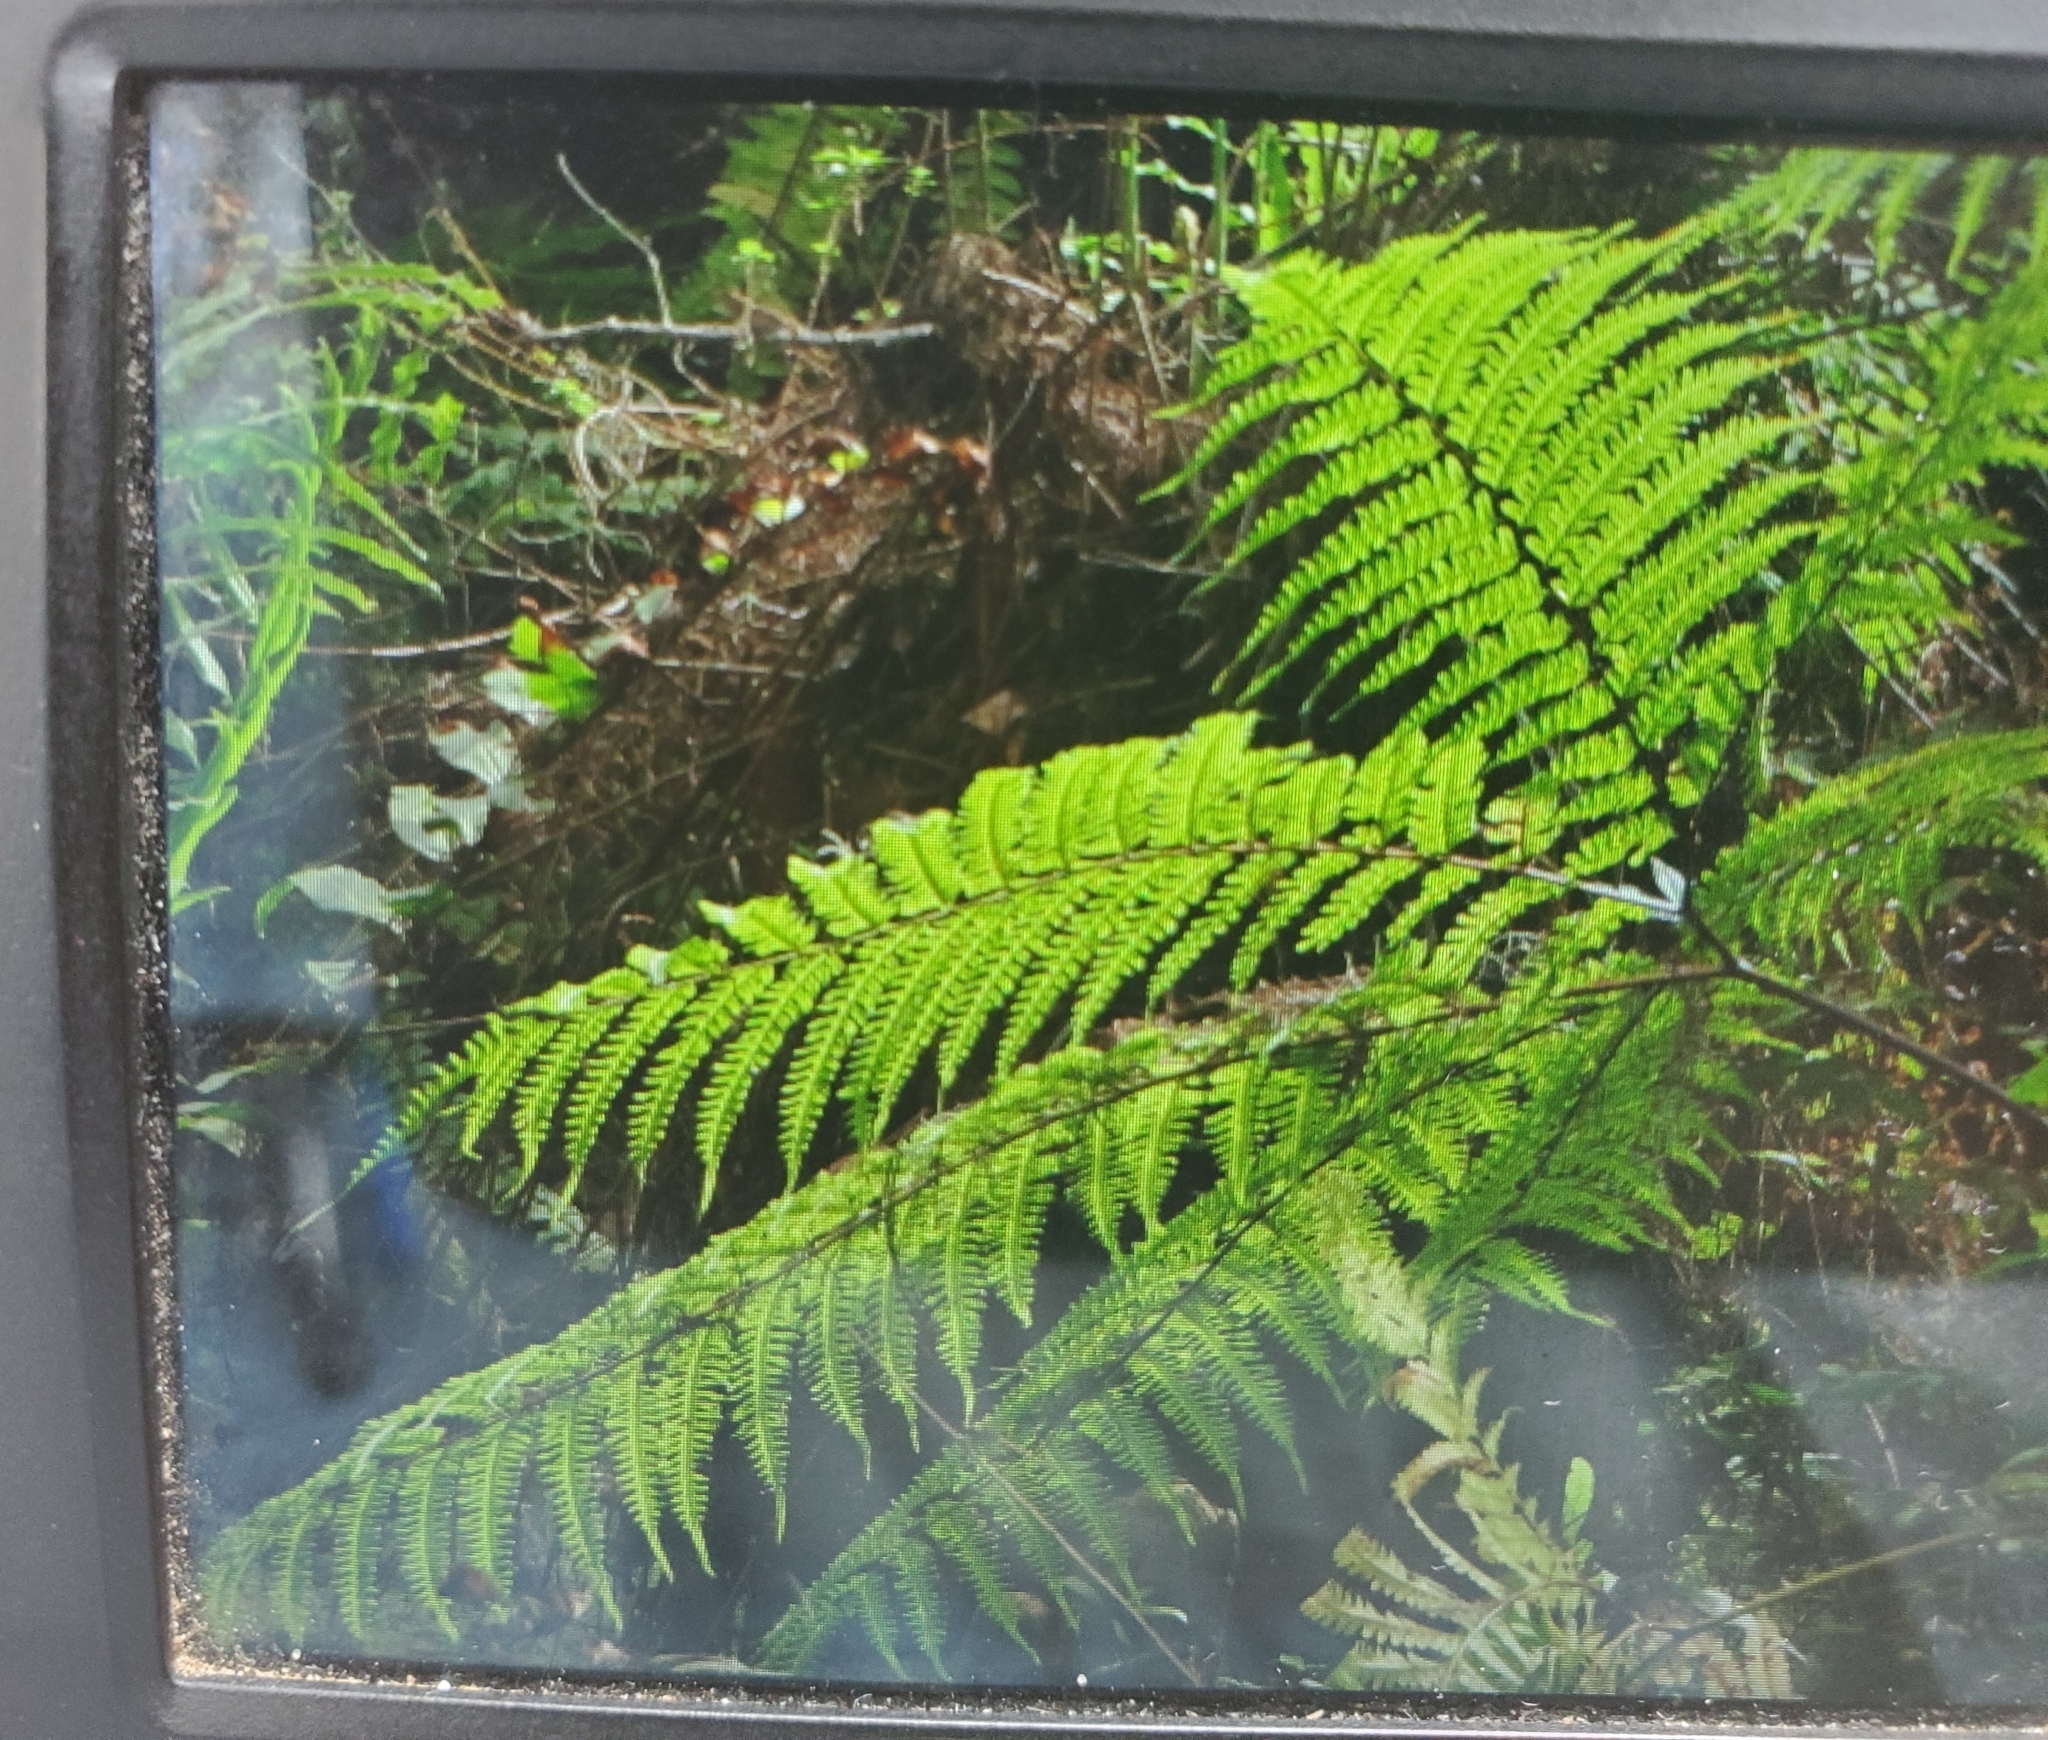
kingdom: Plantae
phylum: Tracheophyta
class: Polypodiopsida
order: Polypodiales
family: Pteridaceae
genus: Pteris
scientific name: Pteris tripartita
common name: Giant brake
